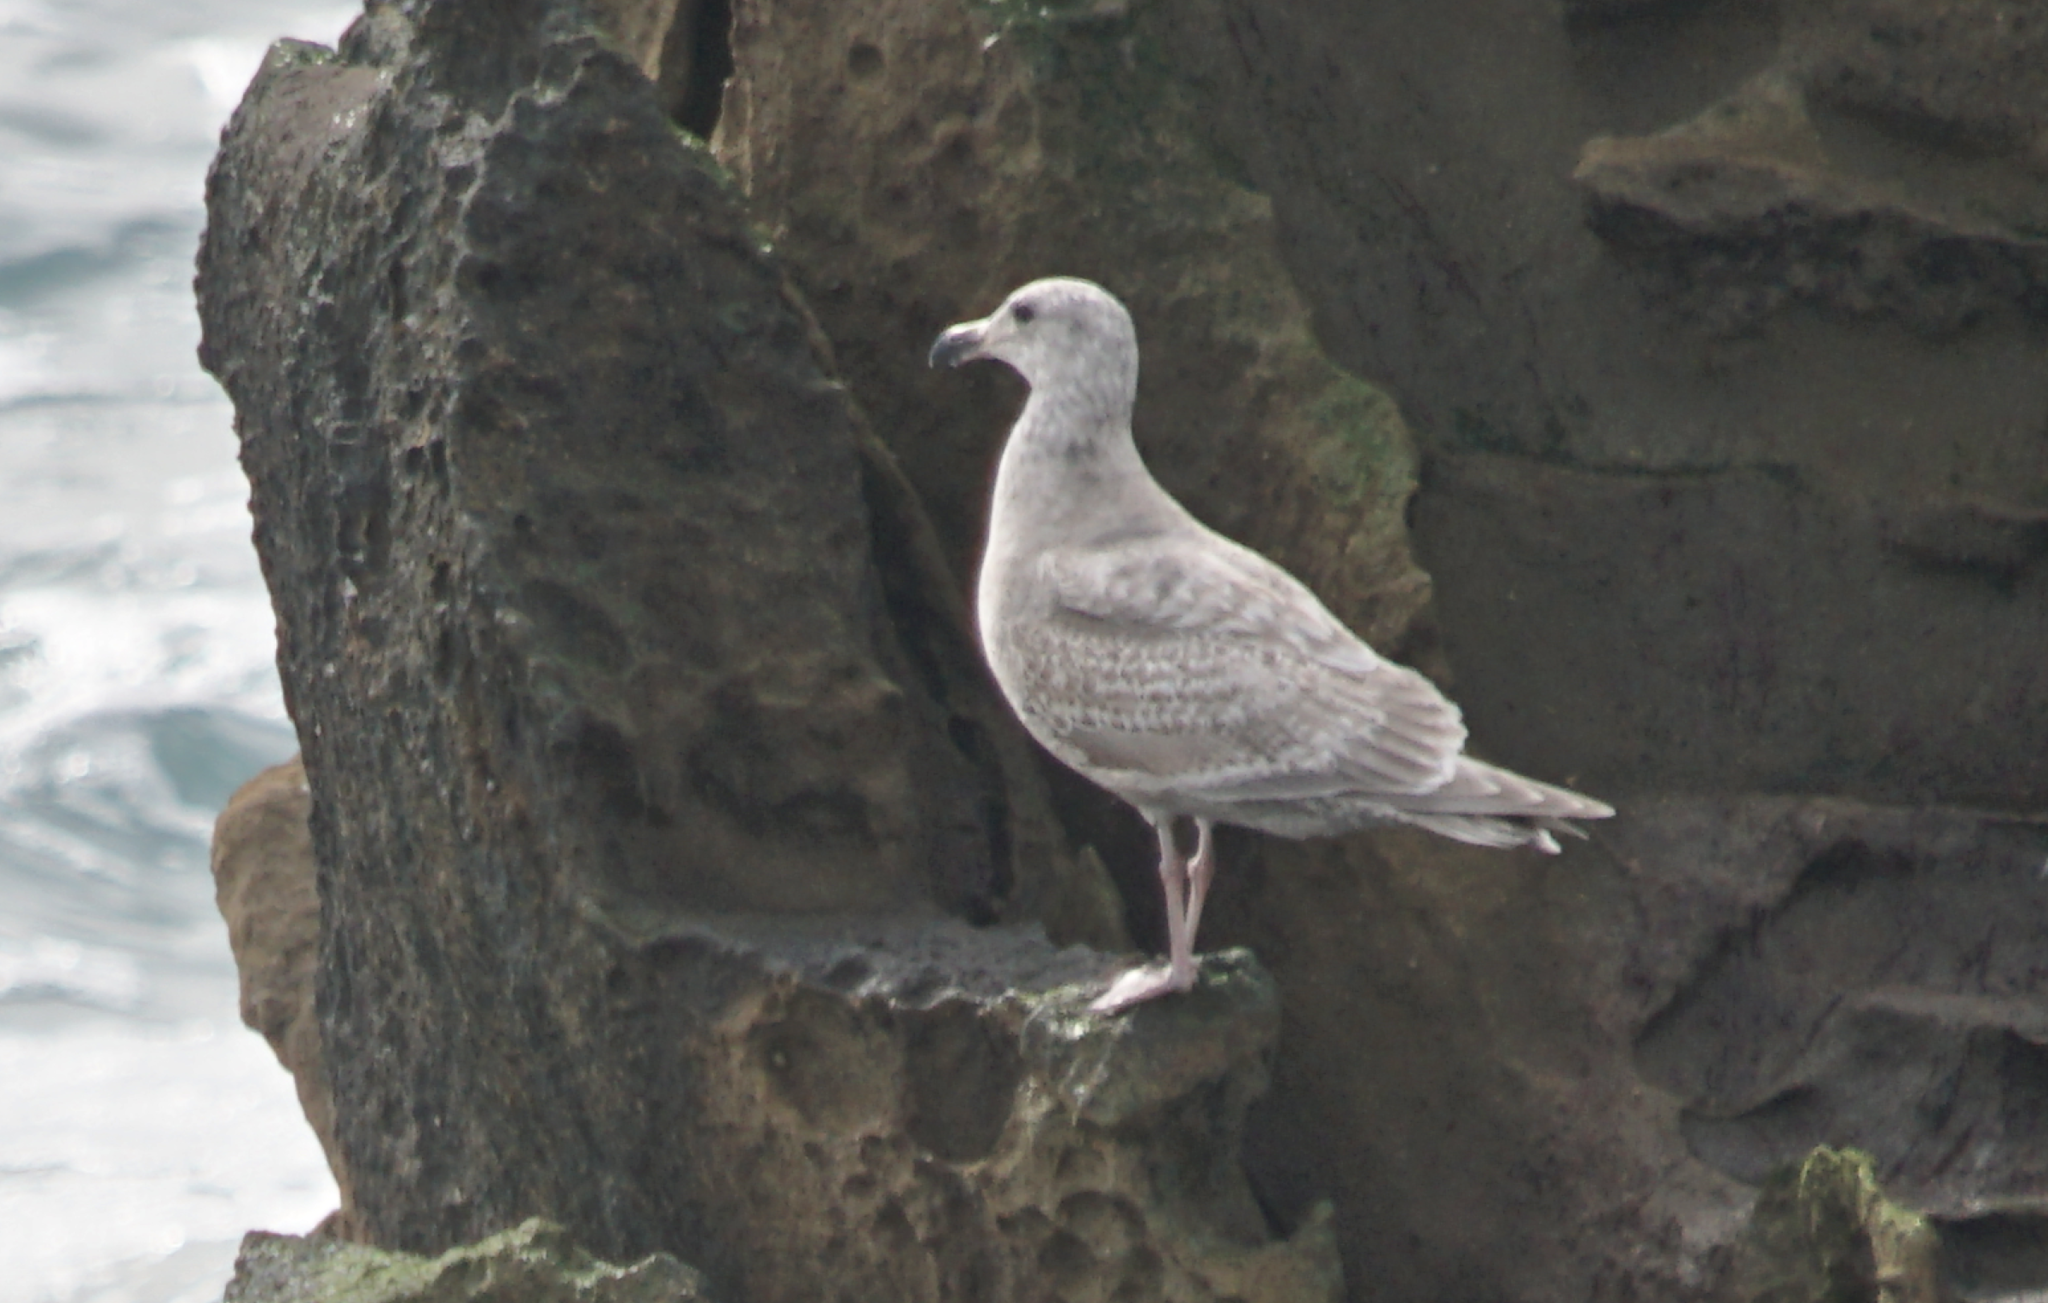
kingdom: Animalia
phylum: Chordata
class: Aves
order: Charadriiformes
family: Laridae
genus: Larus
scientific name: Larus glaucescens
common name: Glaucous-winged gull
